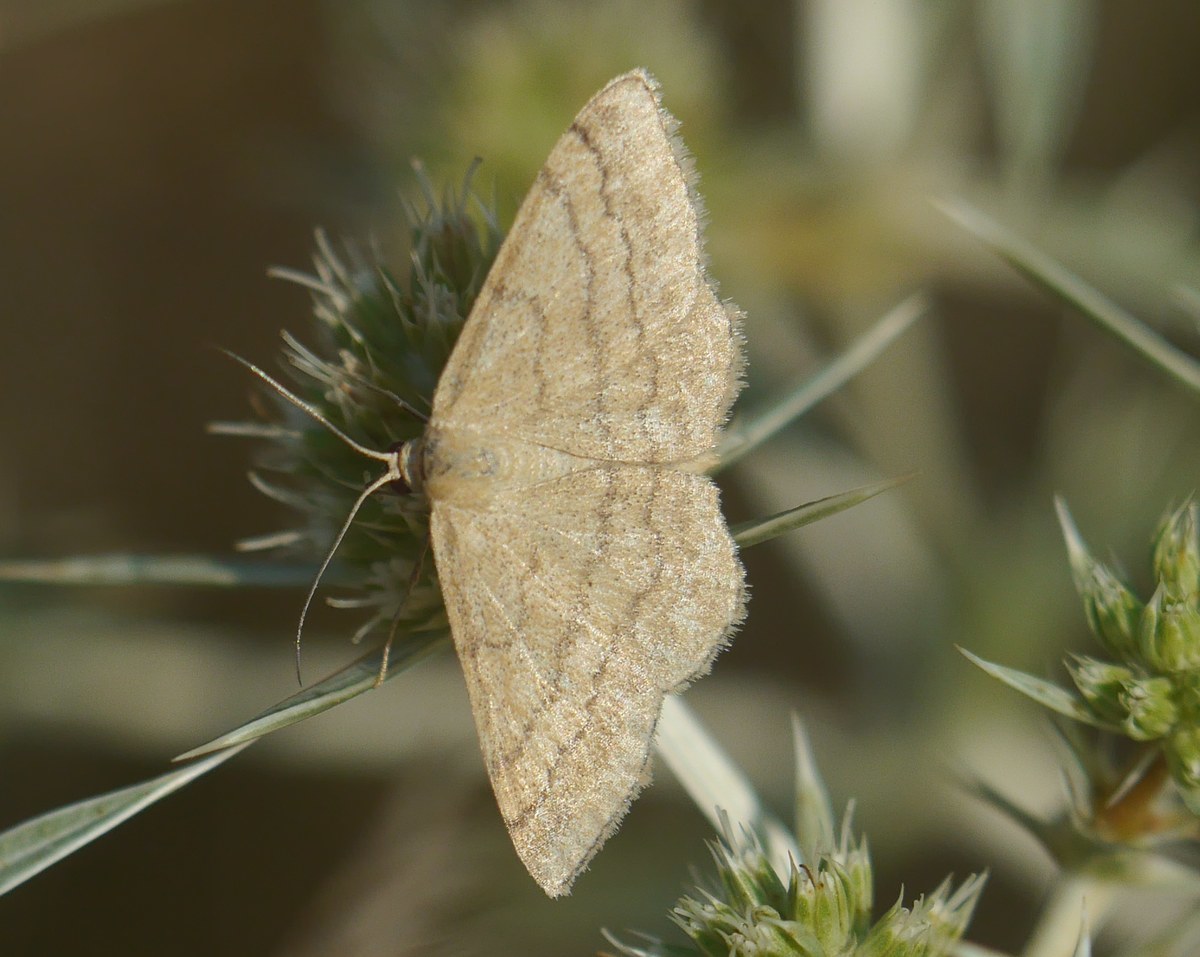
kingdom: Animalia
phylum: Arthropoda
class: Insecta
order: Lepidoptera
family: Geometridae
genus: Scopula
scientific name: Scopula rubiginata
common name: Tawny wave
